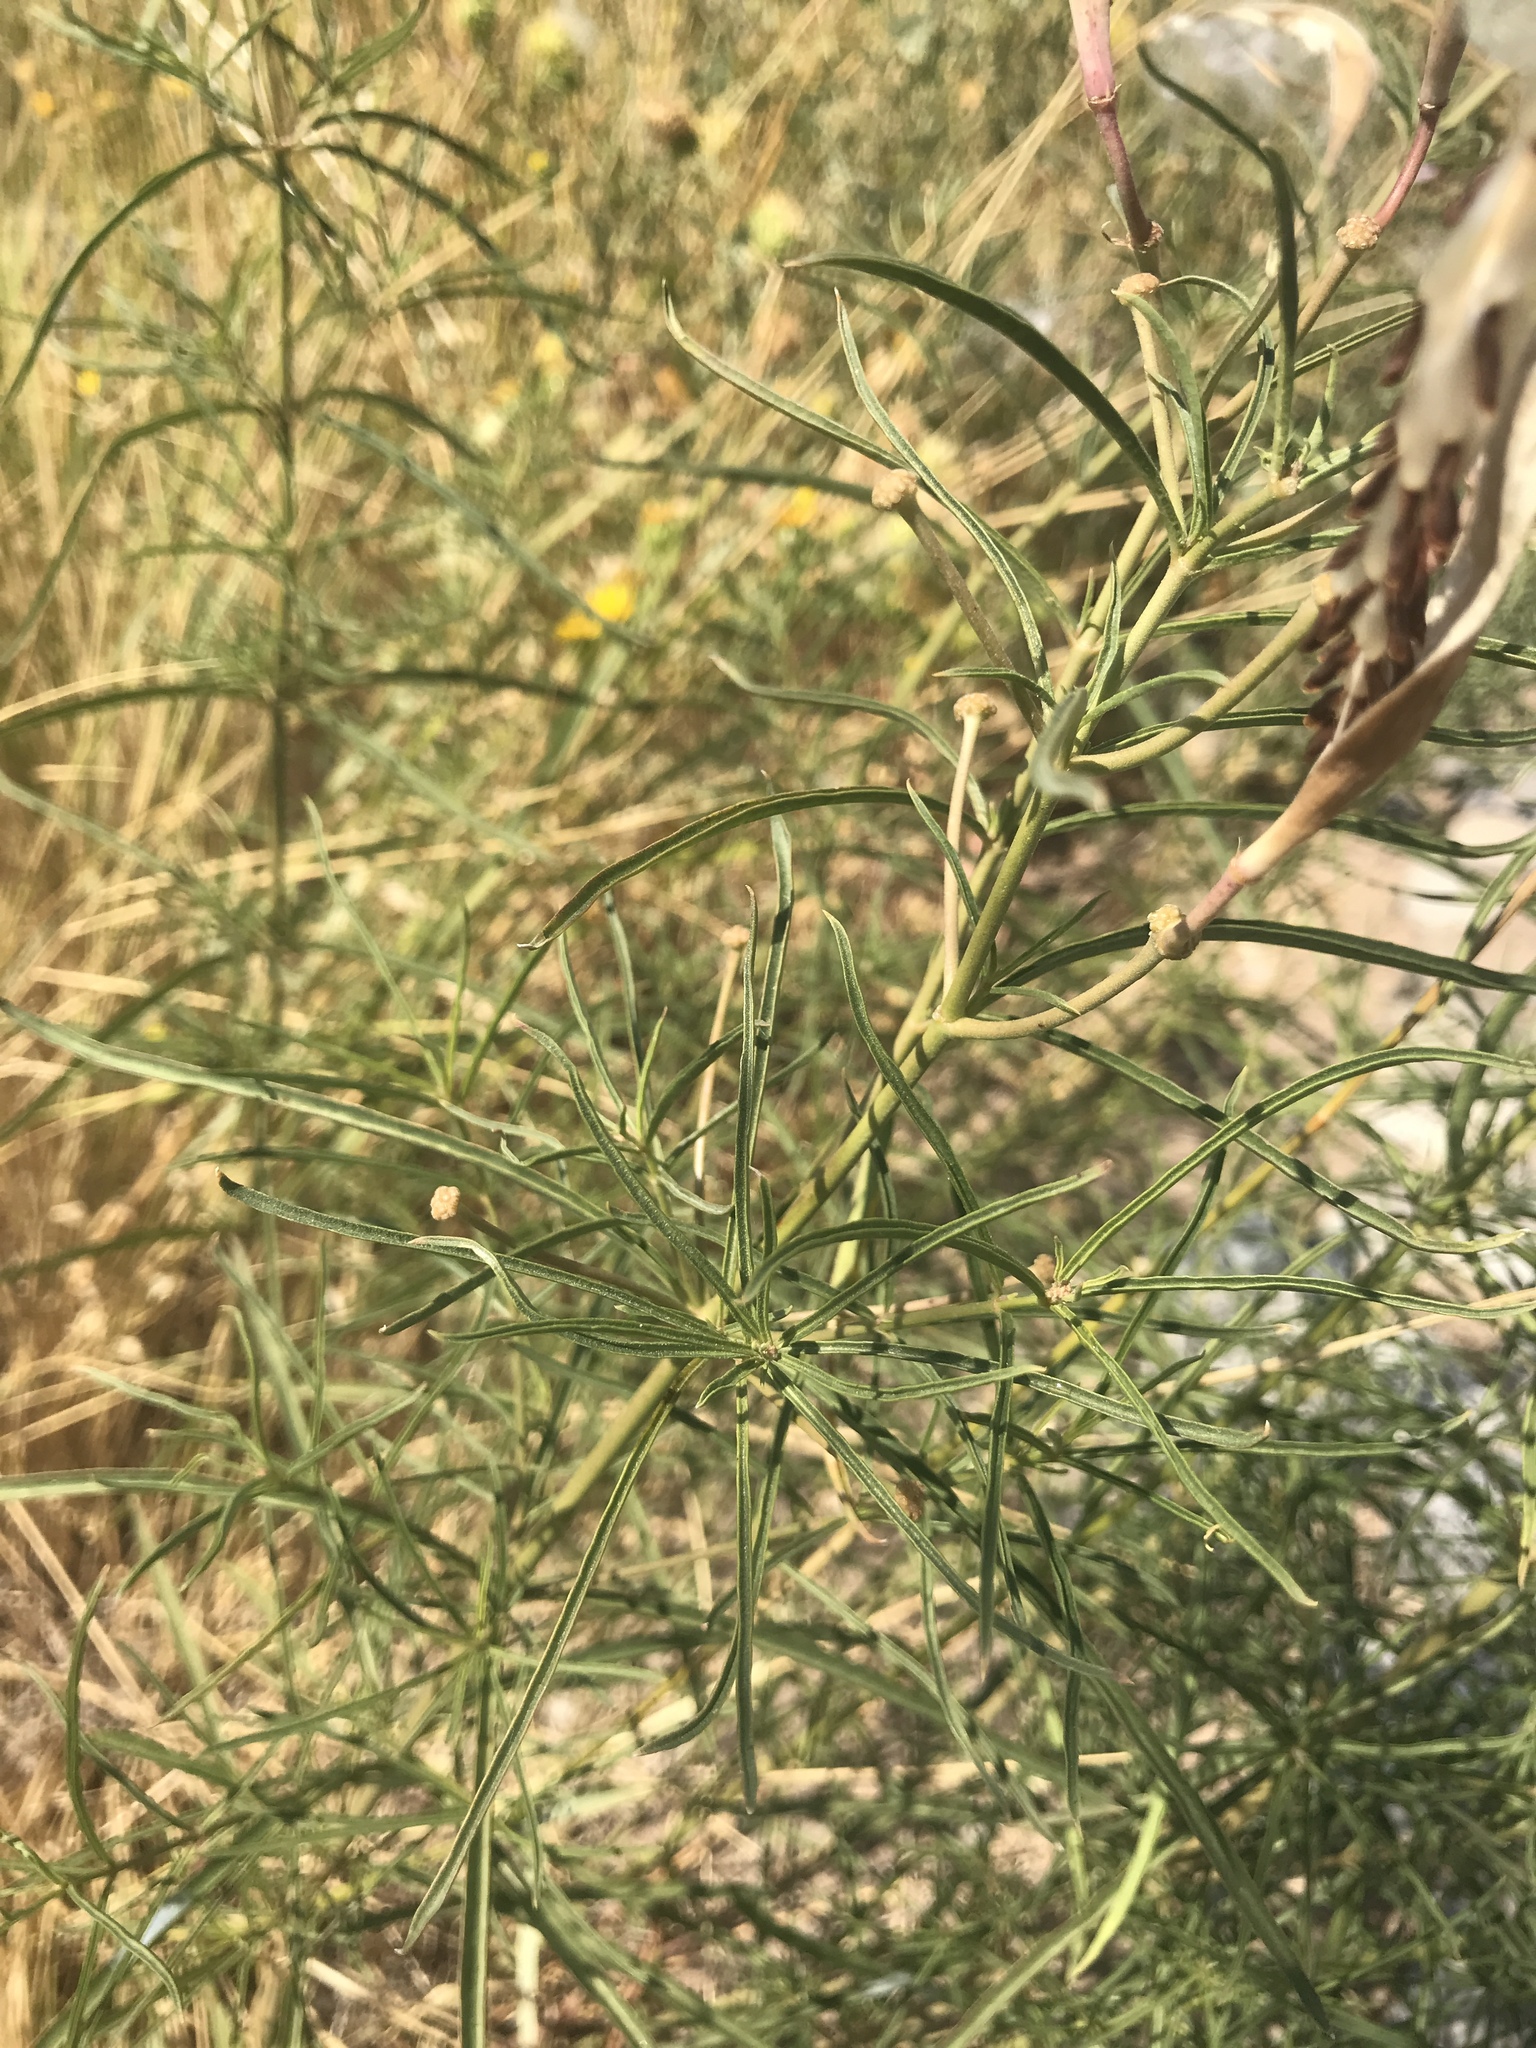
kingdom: Plantae
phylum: Tracheophyta
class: Magnoliopsida
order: Gentianales
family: Apocynaceae
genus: Asclepias
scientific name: Asclepias fascicularis
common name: Mexican milkweed
